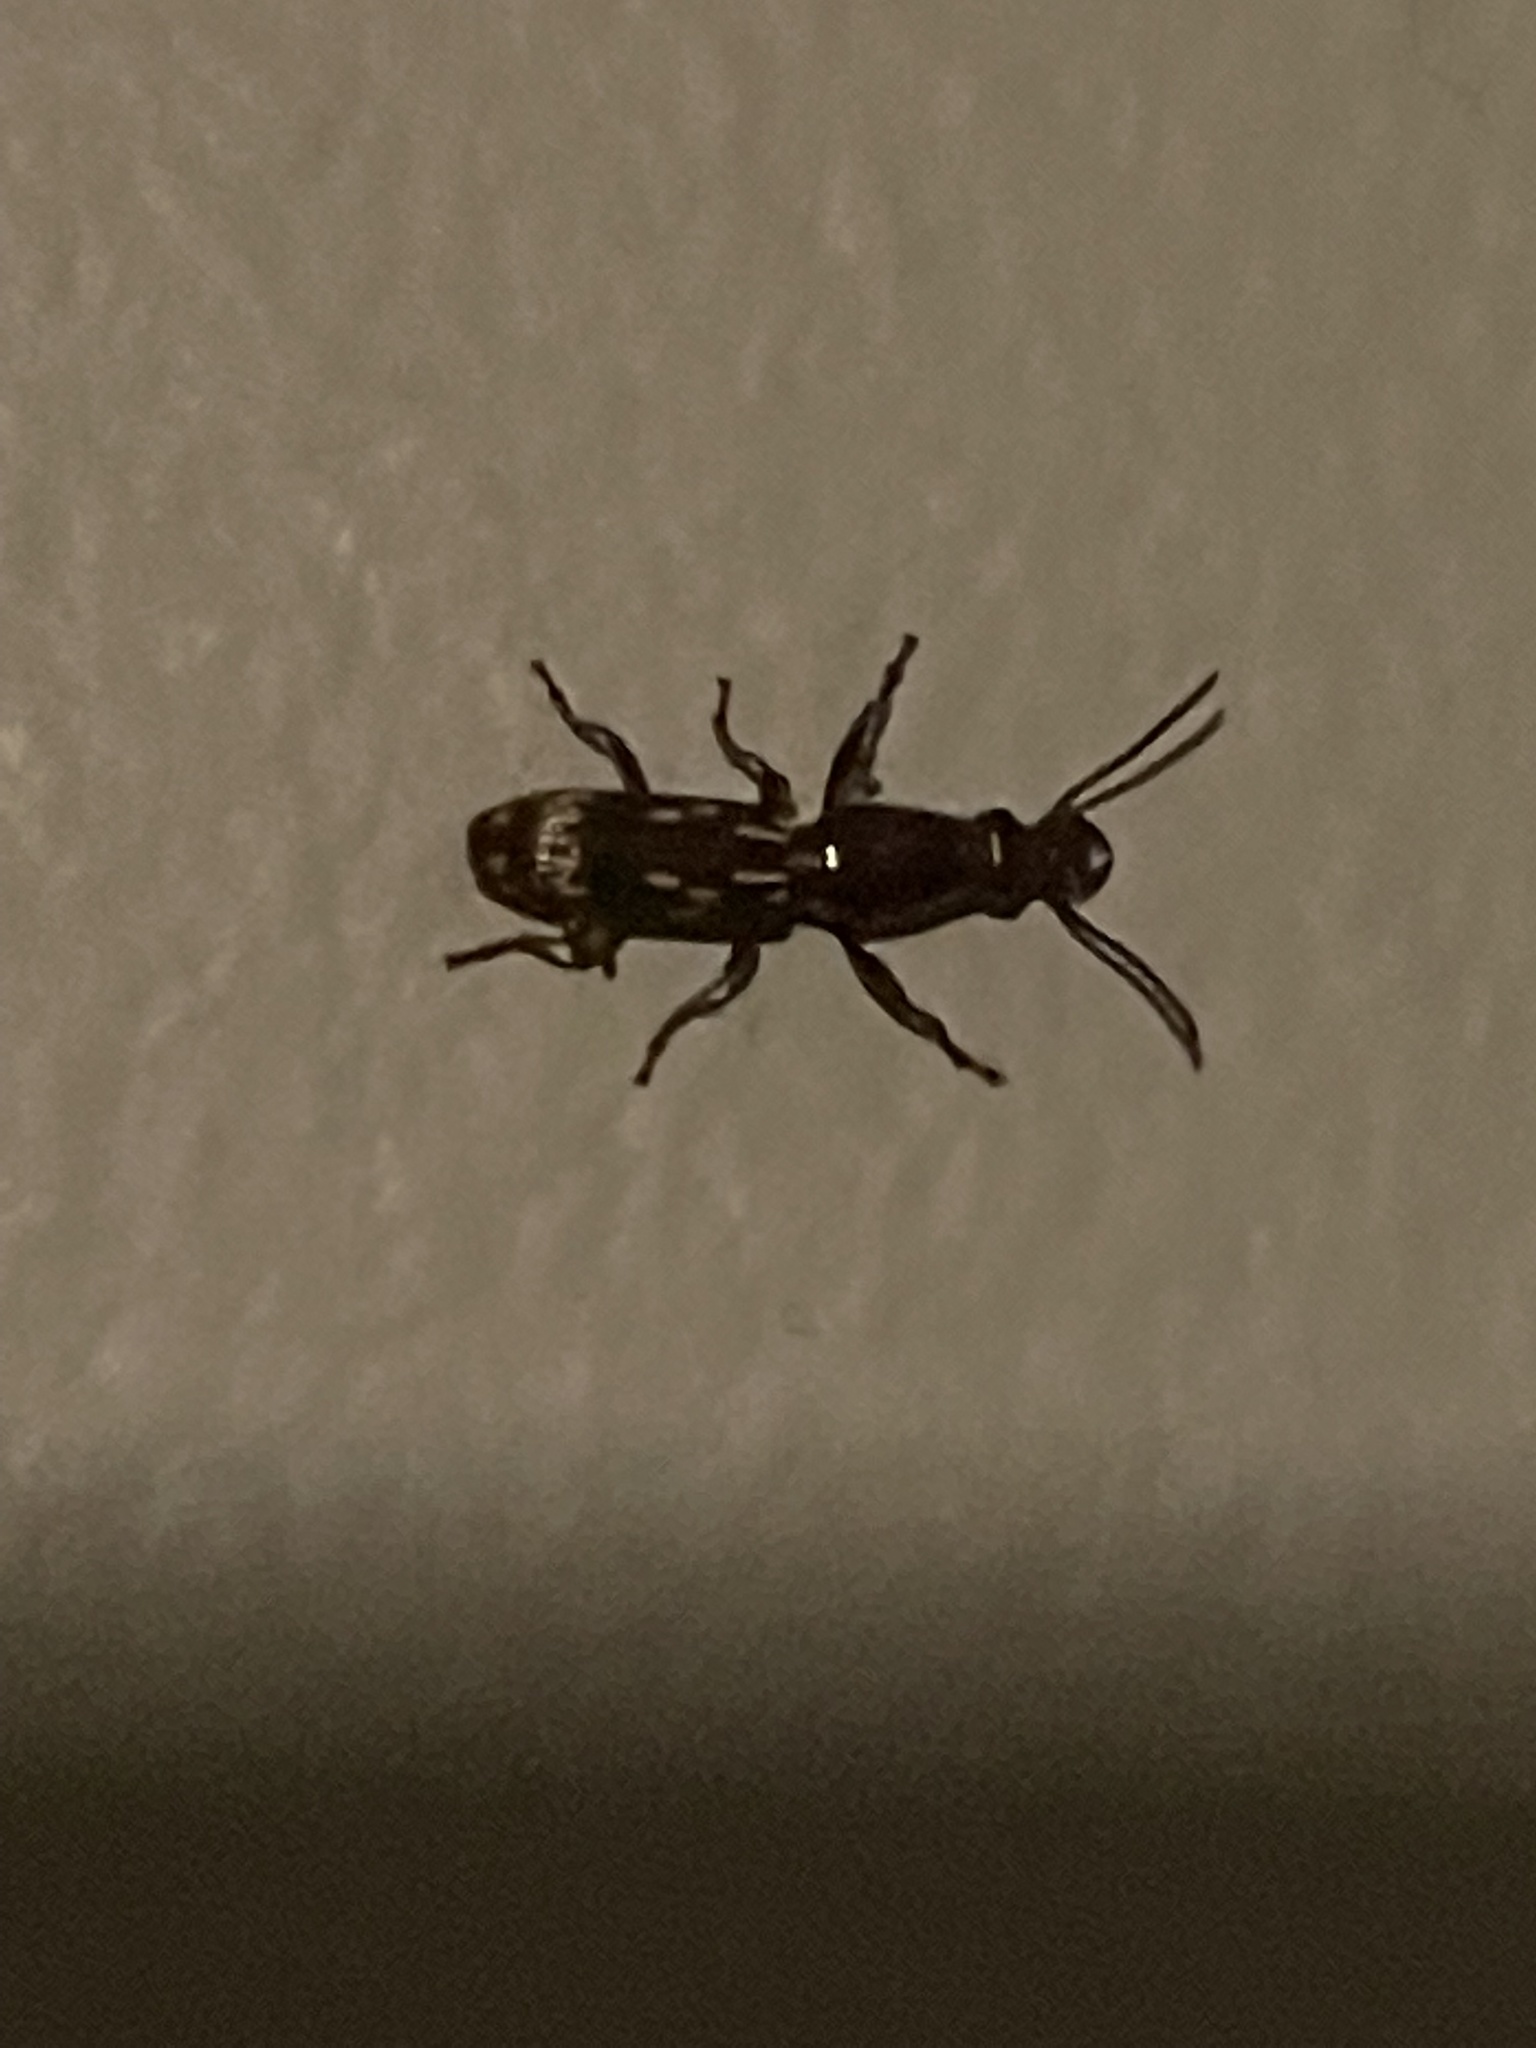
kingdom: Animalia
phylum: Arthropoda
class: Insecta
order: Coleoptera
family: Brentidae
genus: Arrenodes
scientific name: Arrenodes minutus
